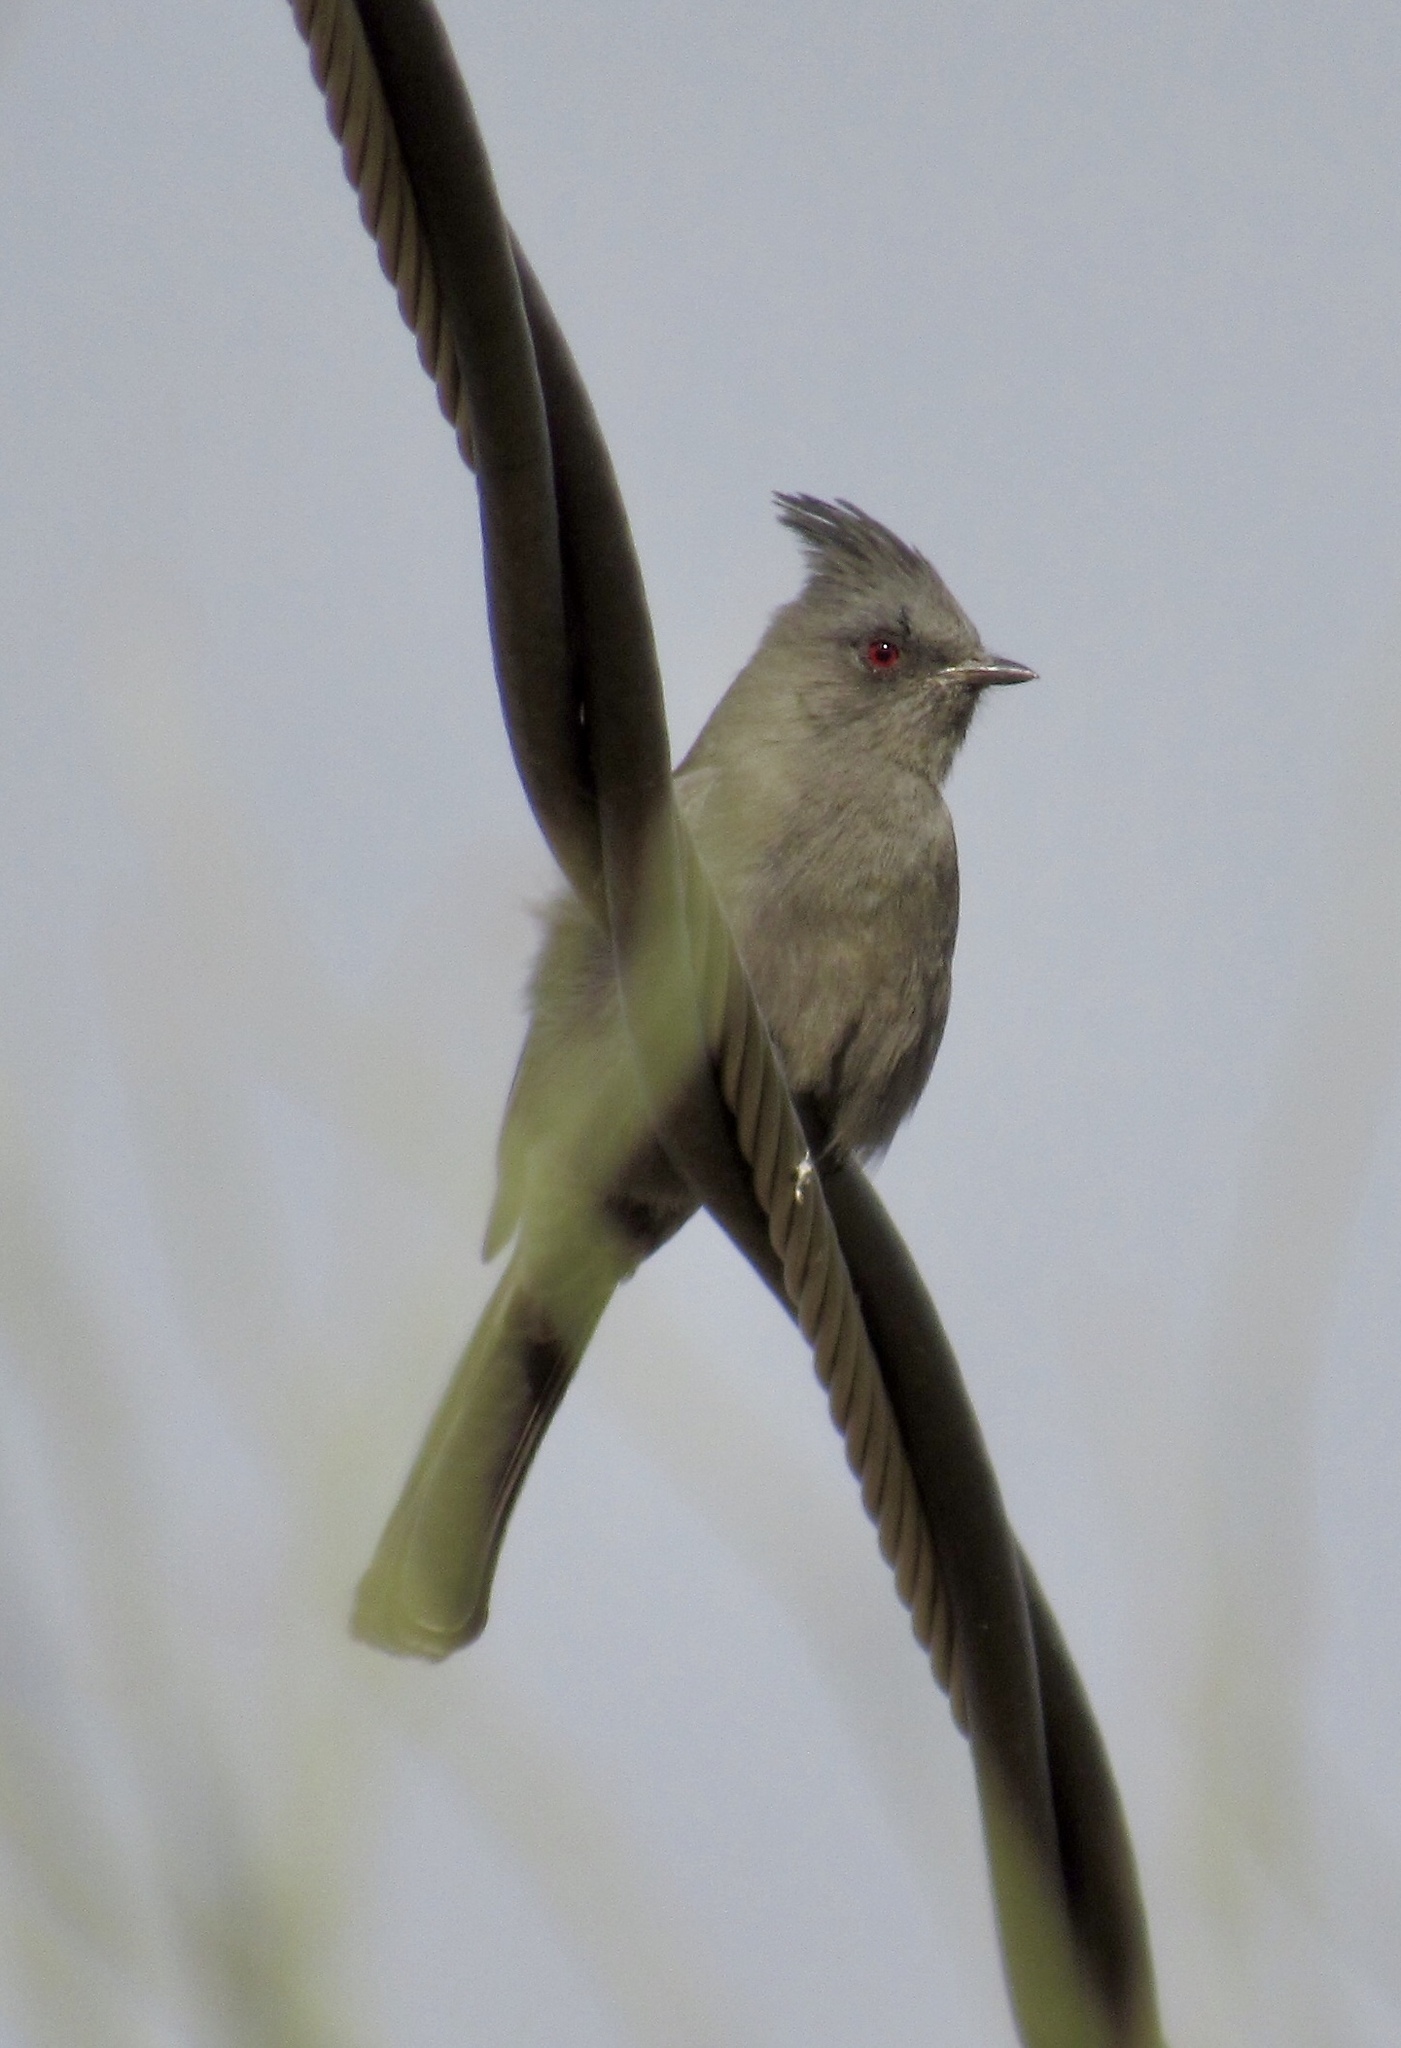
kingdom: Animalia
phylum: Chordata
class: Aves
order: Passeriformes
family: Ptilogonatidae
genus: Phainopepla
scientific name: Phainopepla nitens
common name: Phainopepla
